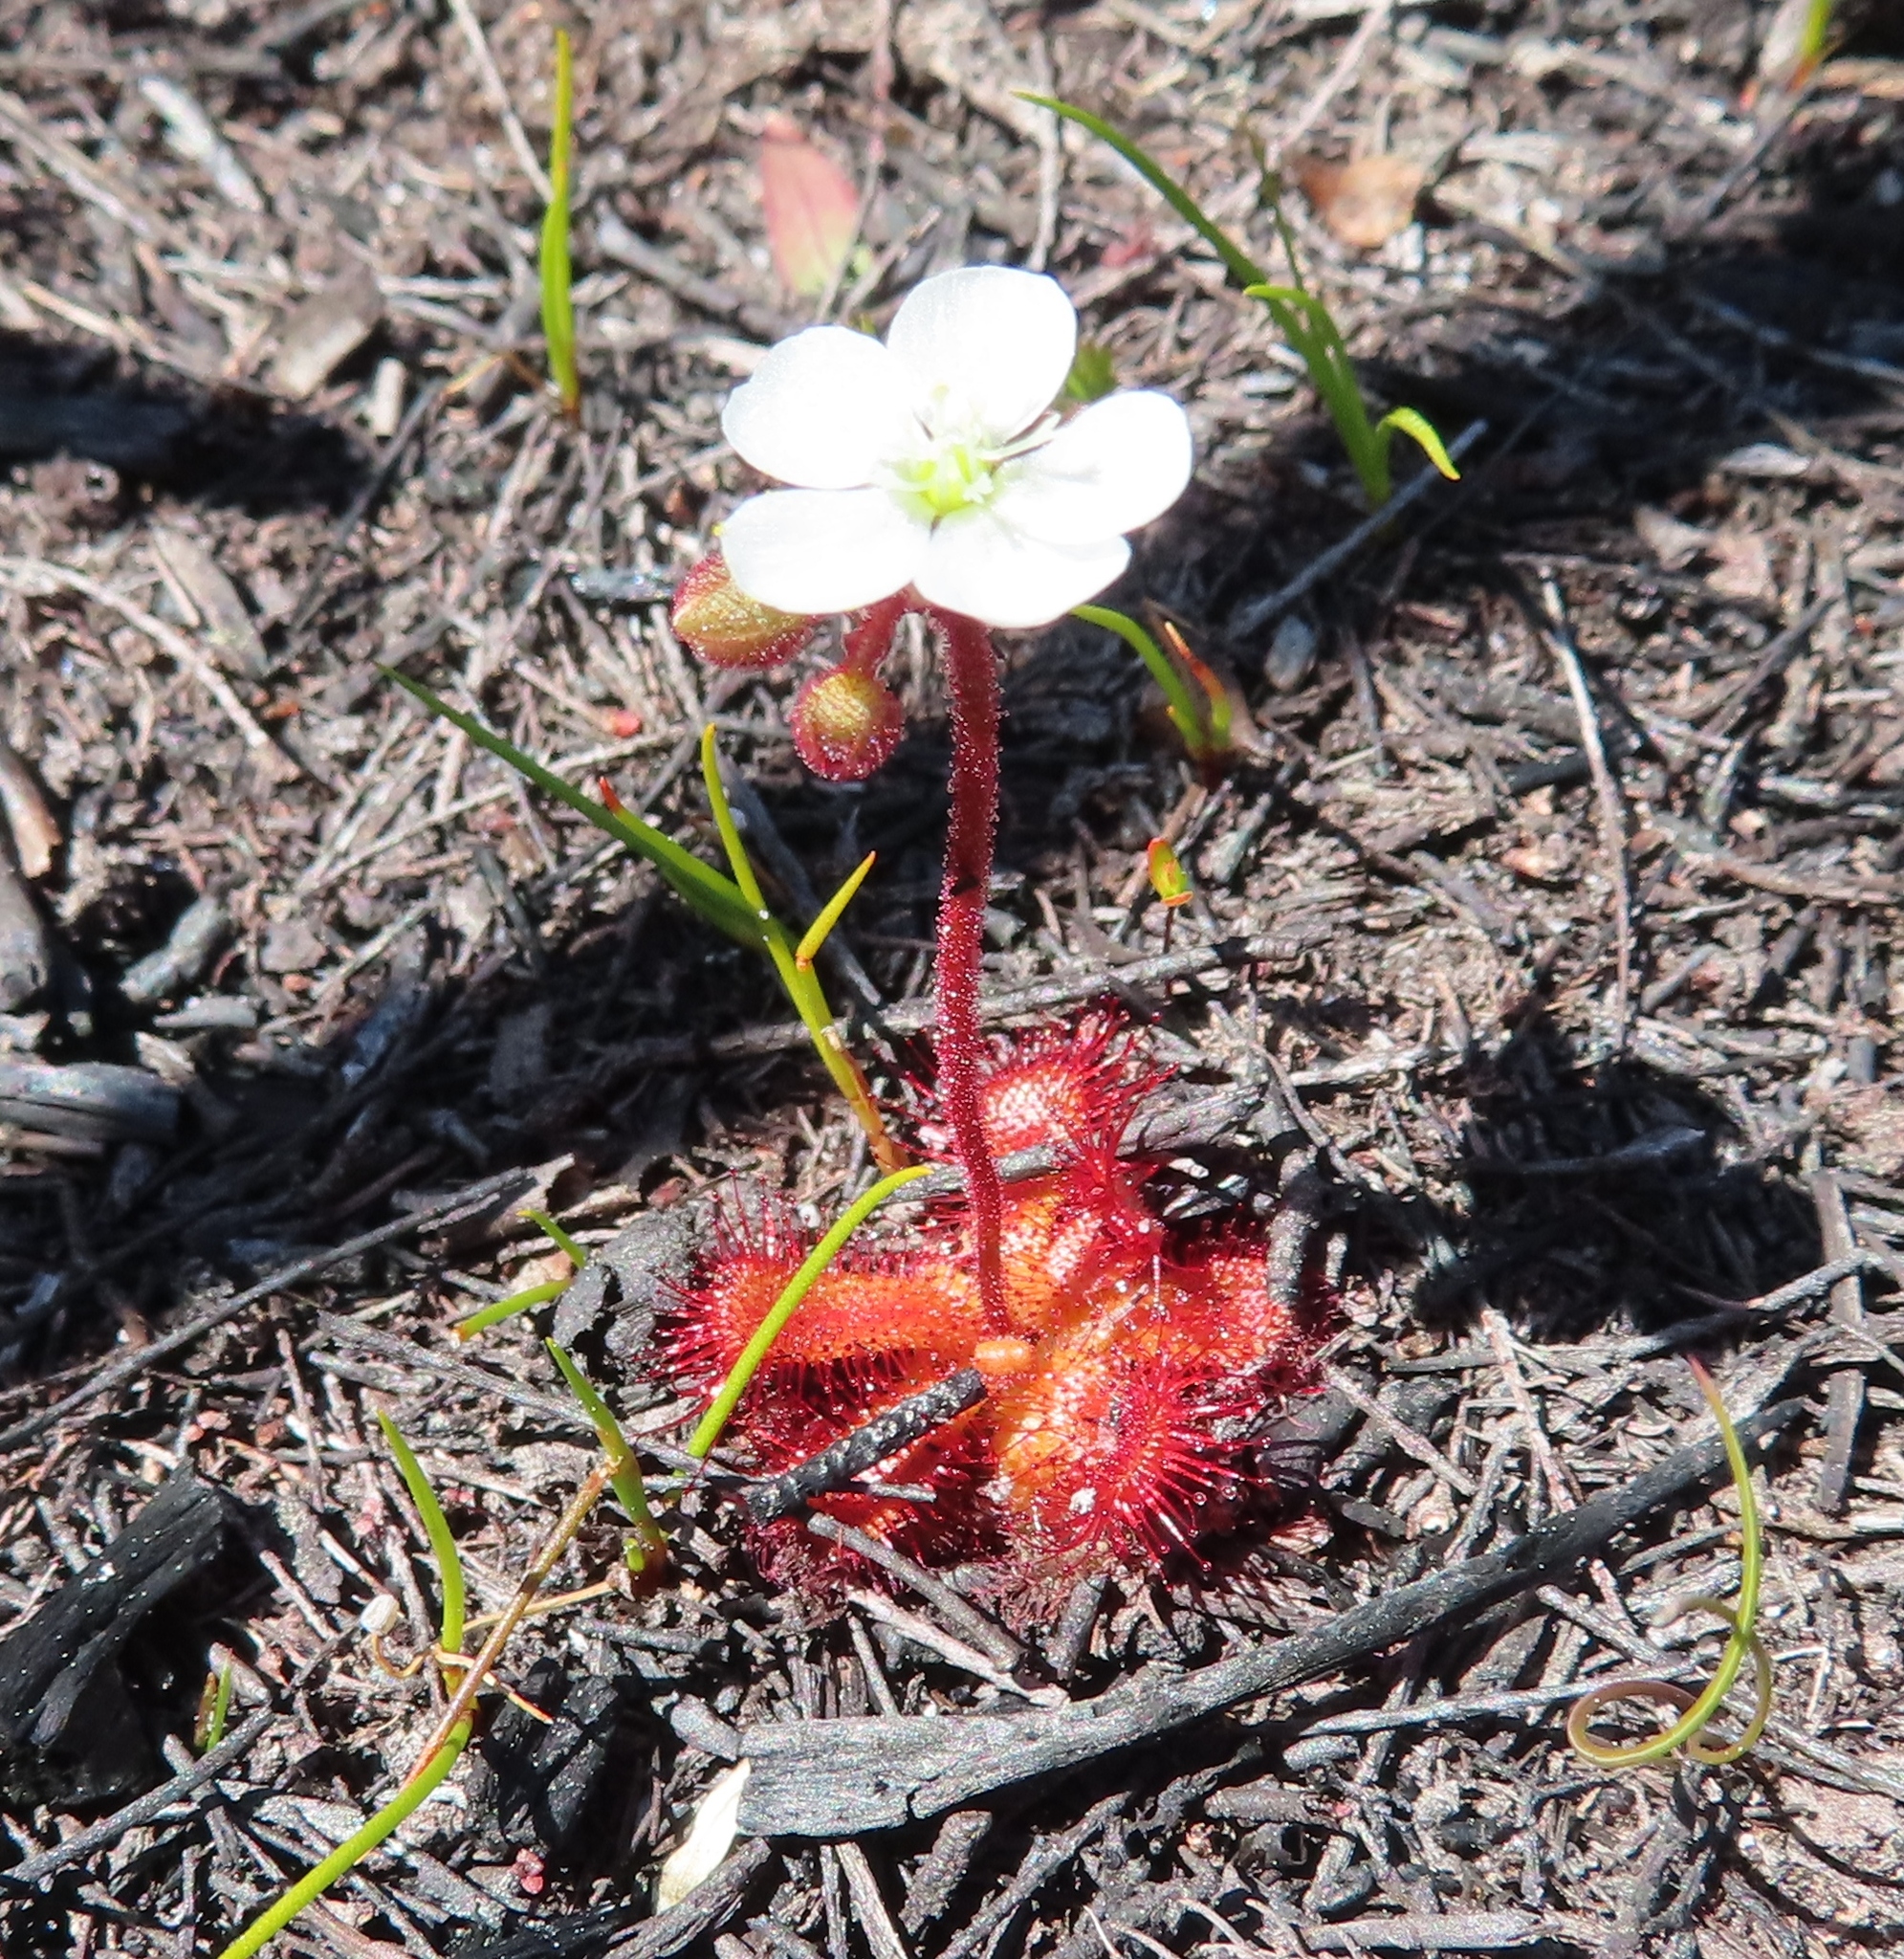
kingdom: Plantae
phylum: Tracheophyta
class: Magnoliopsida
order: Caryophyllales
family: Droseraceae
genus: Drosera
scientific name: Drosera trinervia
